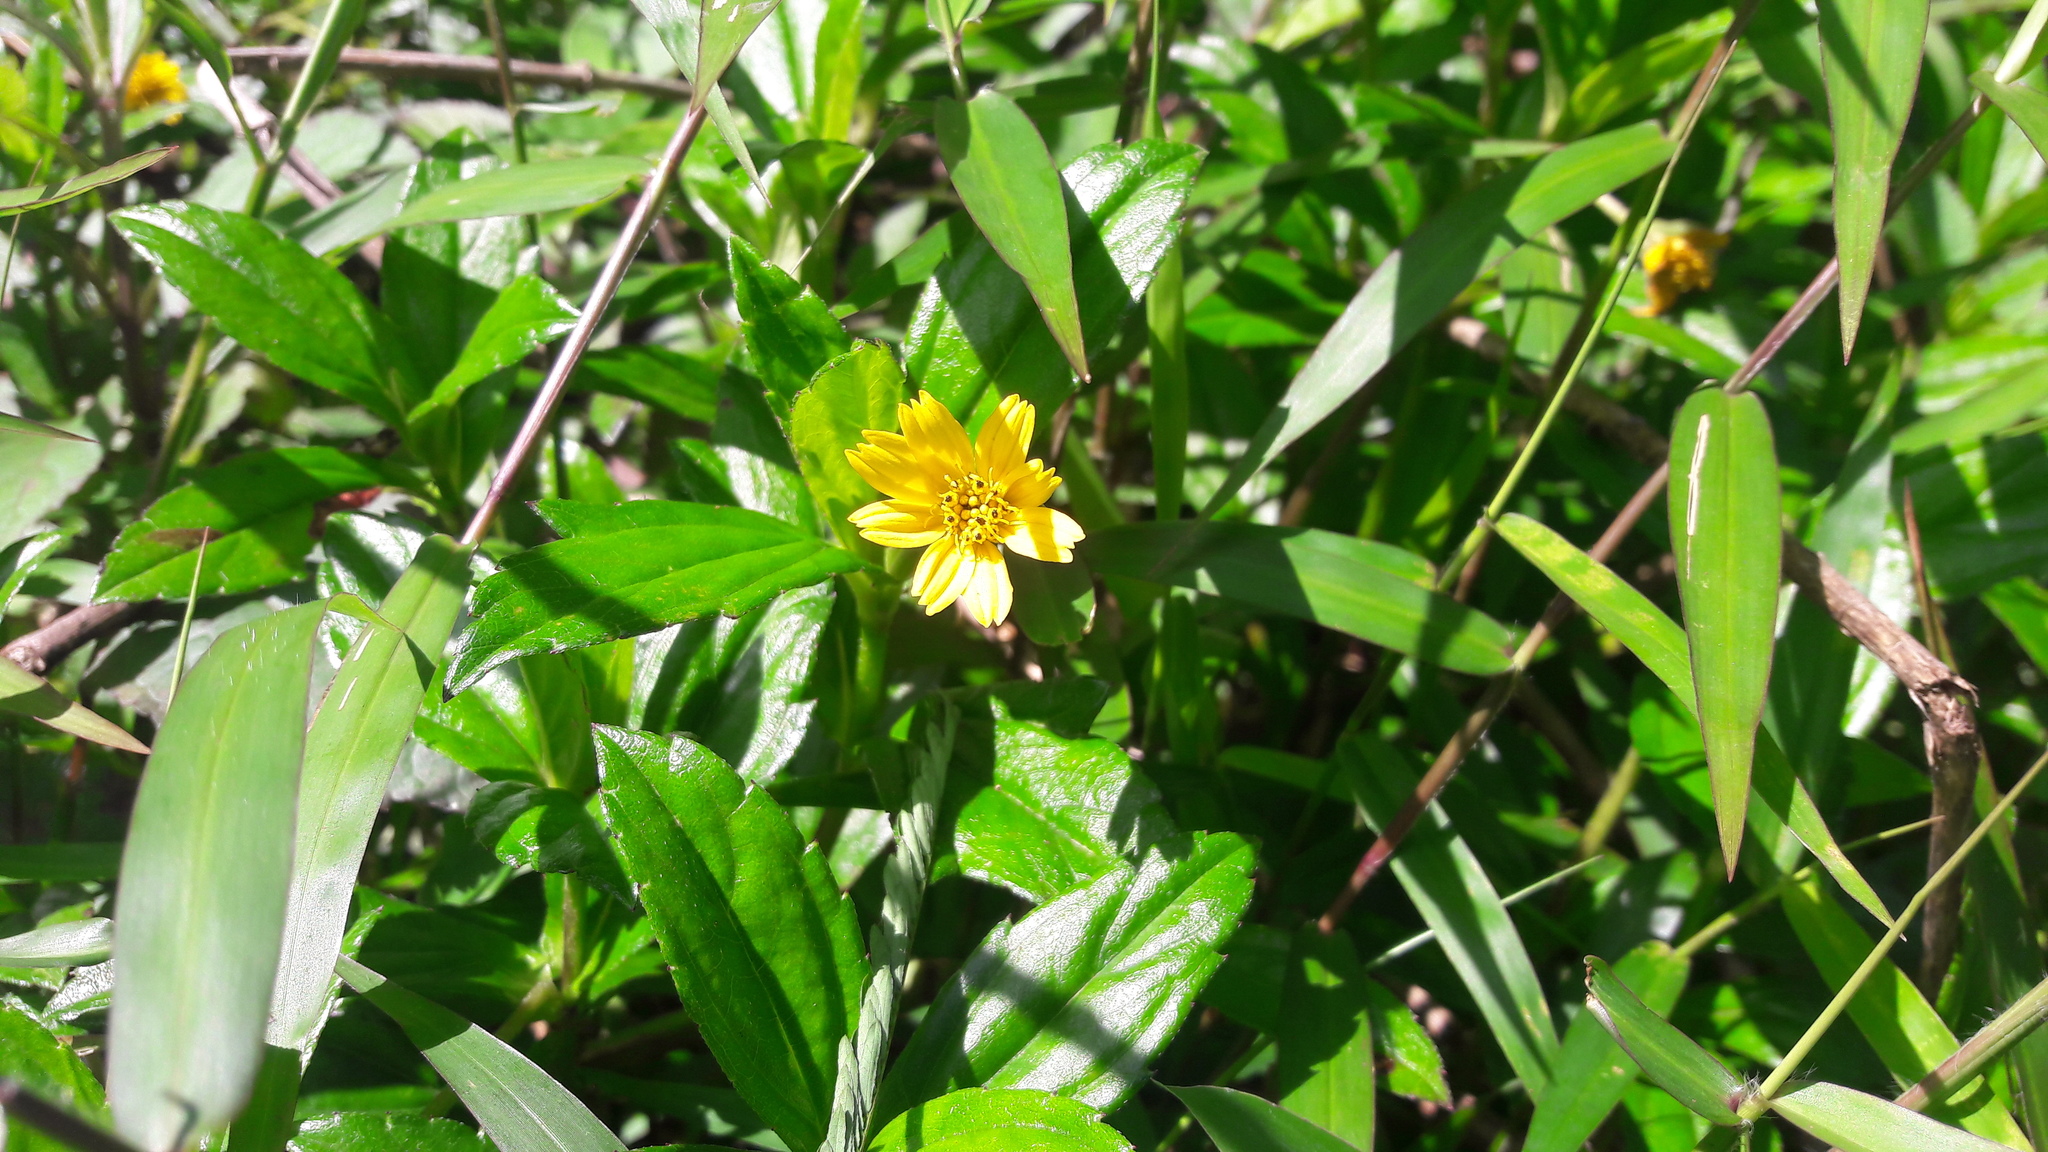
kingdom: Plantae
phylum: Tracheophyta
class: Magnoliopsida
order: Asterales
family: Asteraceae
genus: Sphagneticola
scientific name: Sphagneticola trilobata
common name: Bay biscayne creeping-oxeye
